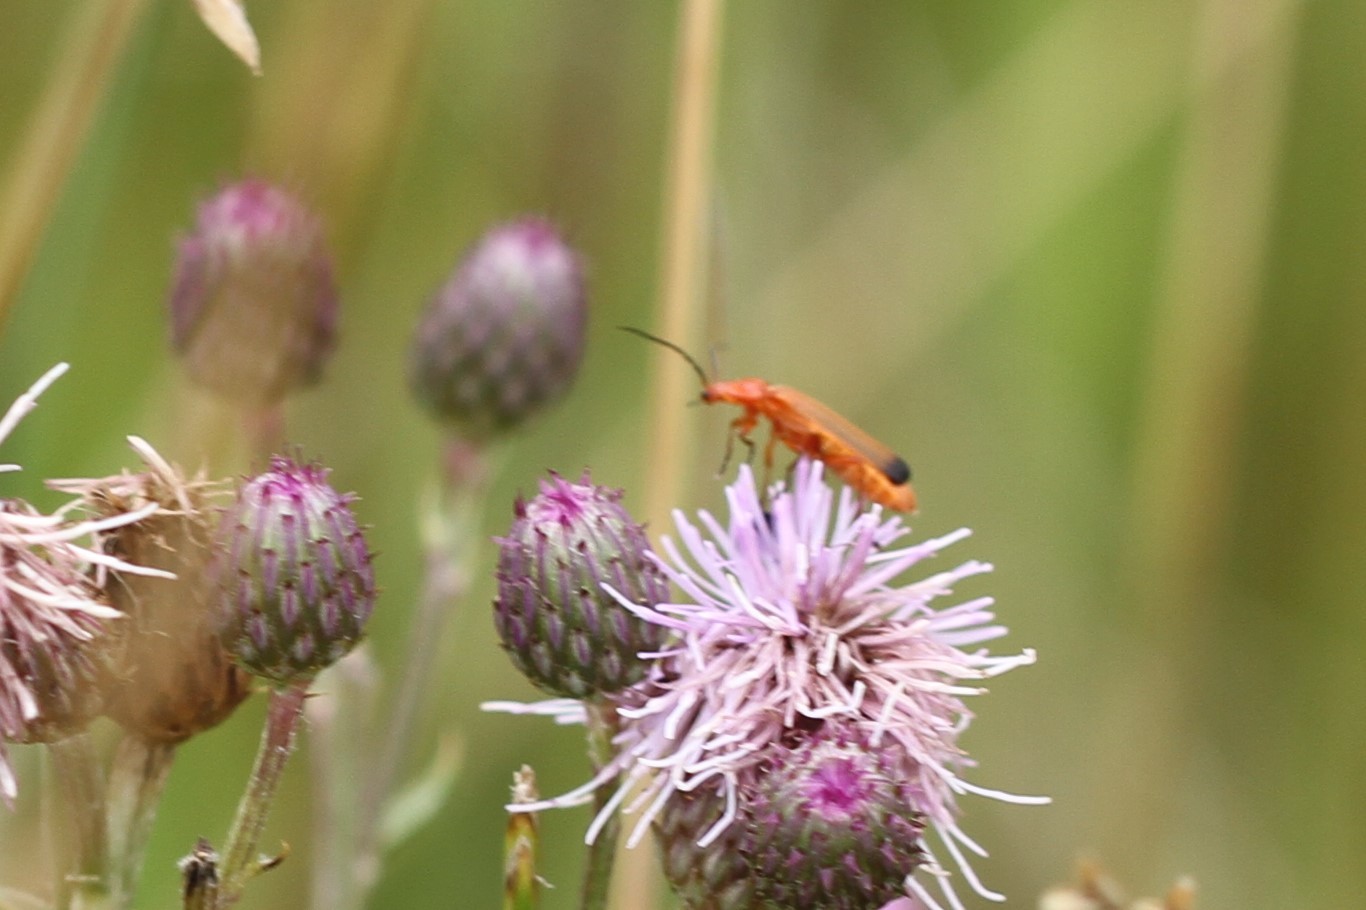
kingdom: Animalia
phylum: Arthropoda
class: Insecta
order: Coleoptera
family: Cantharidae
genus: Rhagonycha
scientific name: Rhagonycha fulva
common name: Common red soldier beetle
